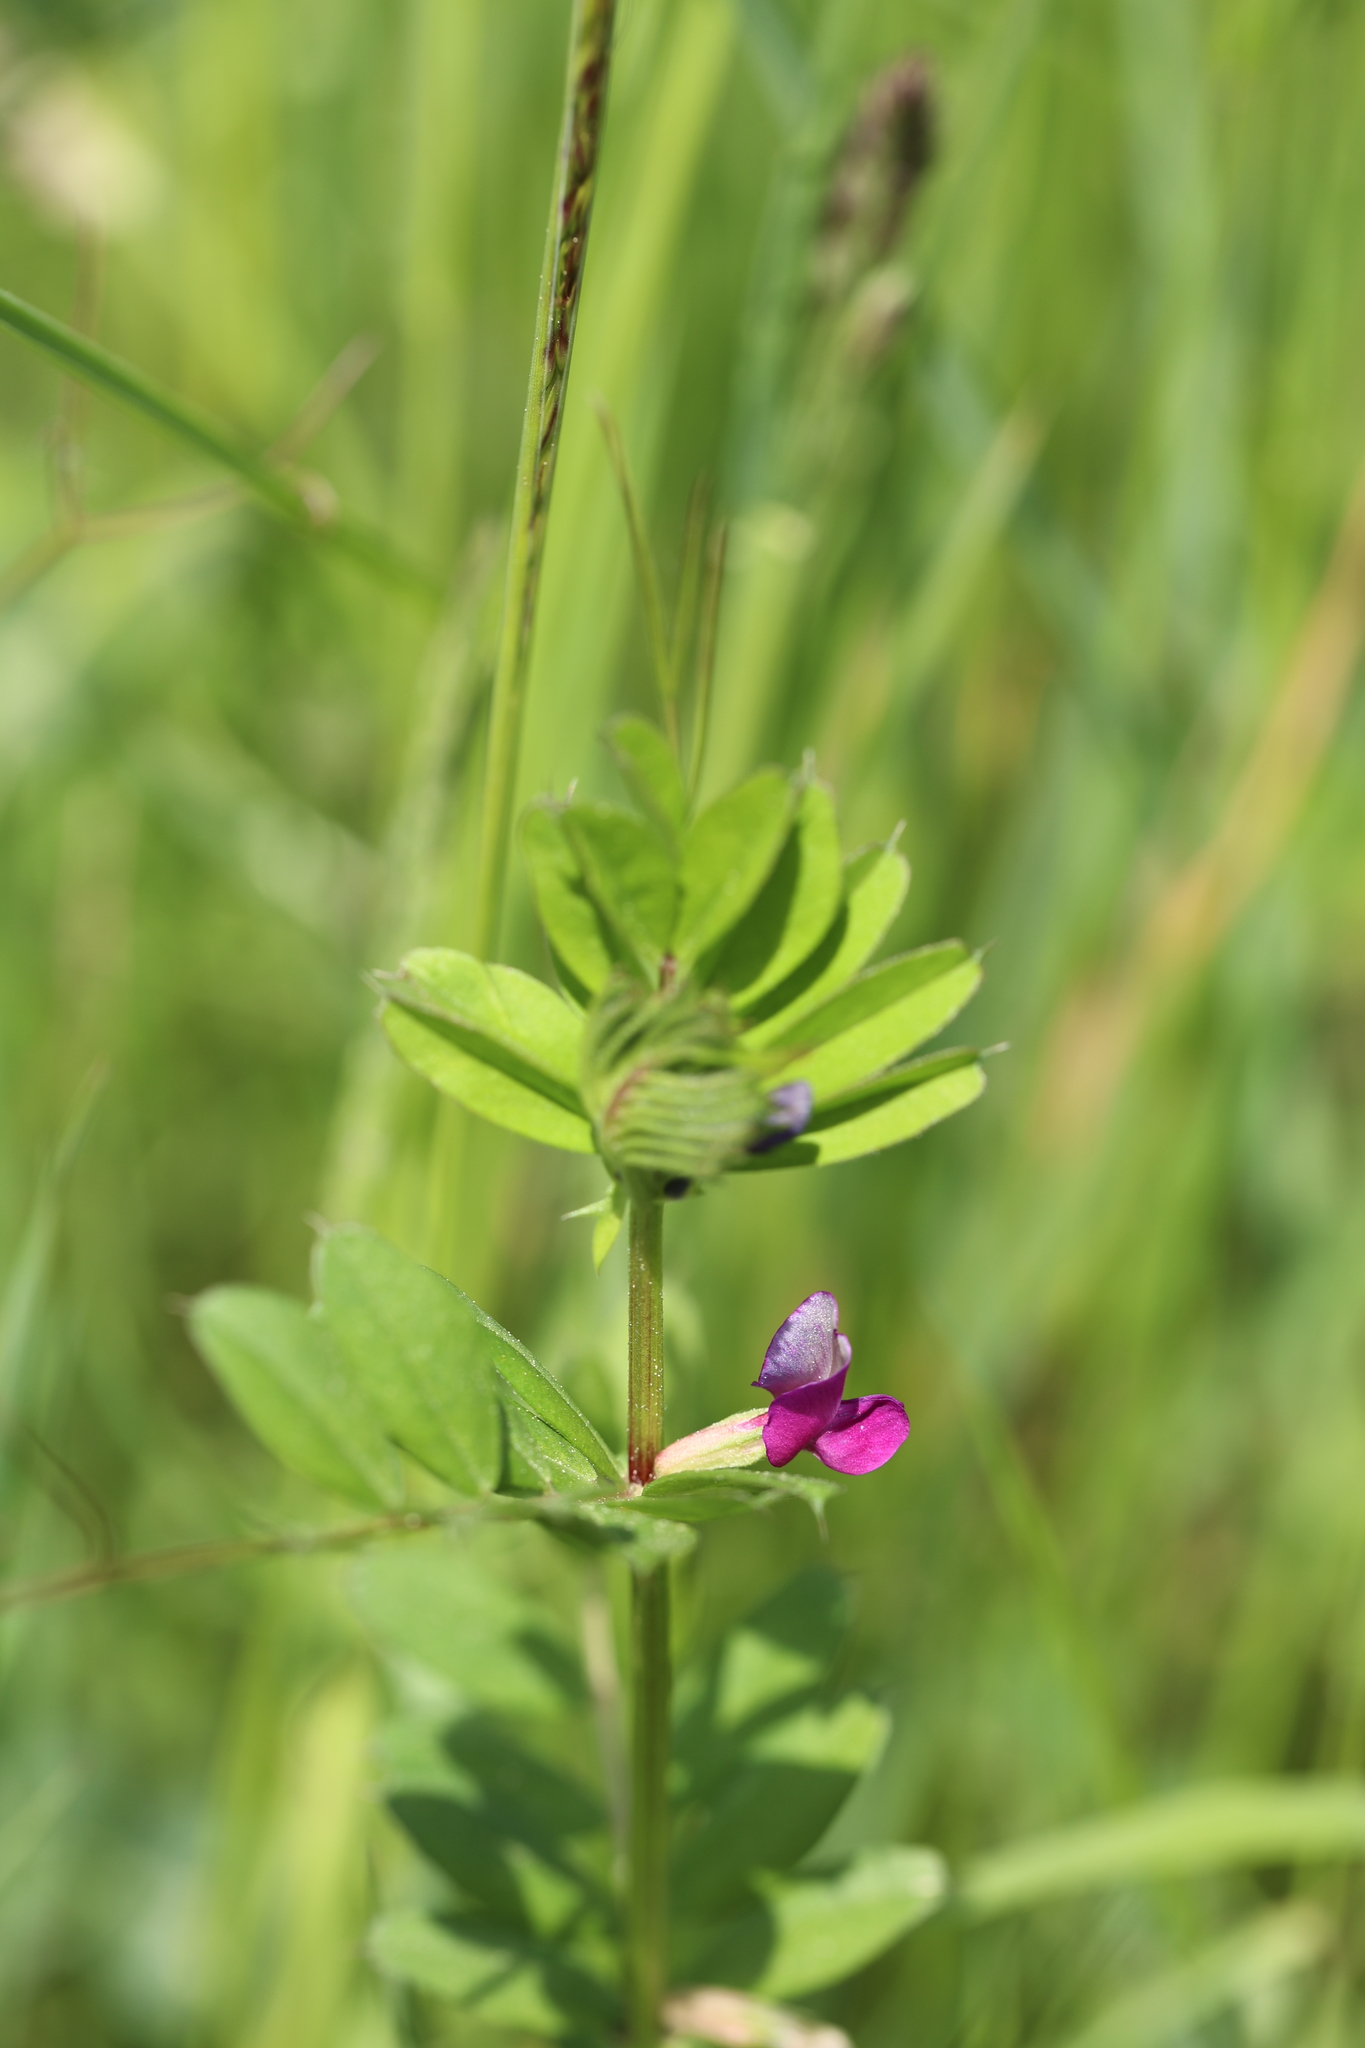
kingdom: Plantae
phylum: Tracheophyta
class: Magnoliopsida
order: Fabales
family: Fabaceae
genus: Vicia
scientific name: Vicia sativa
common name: Garden vetch
